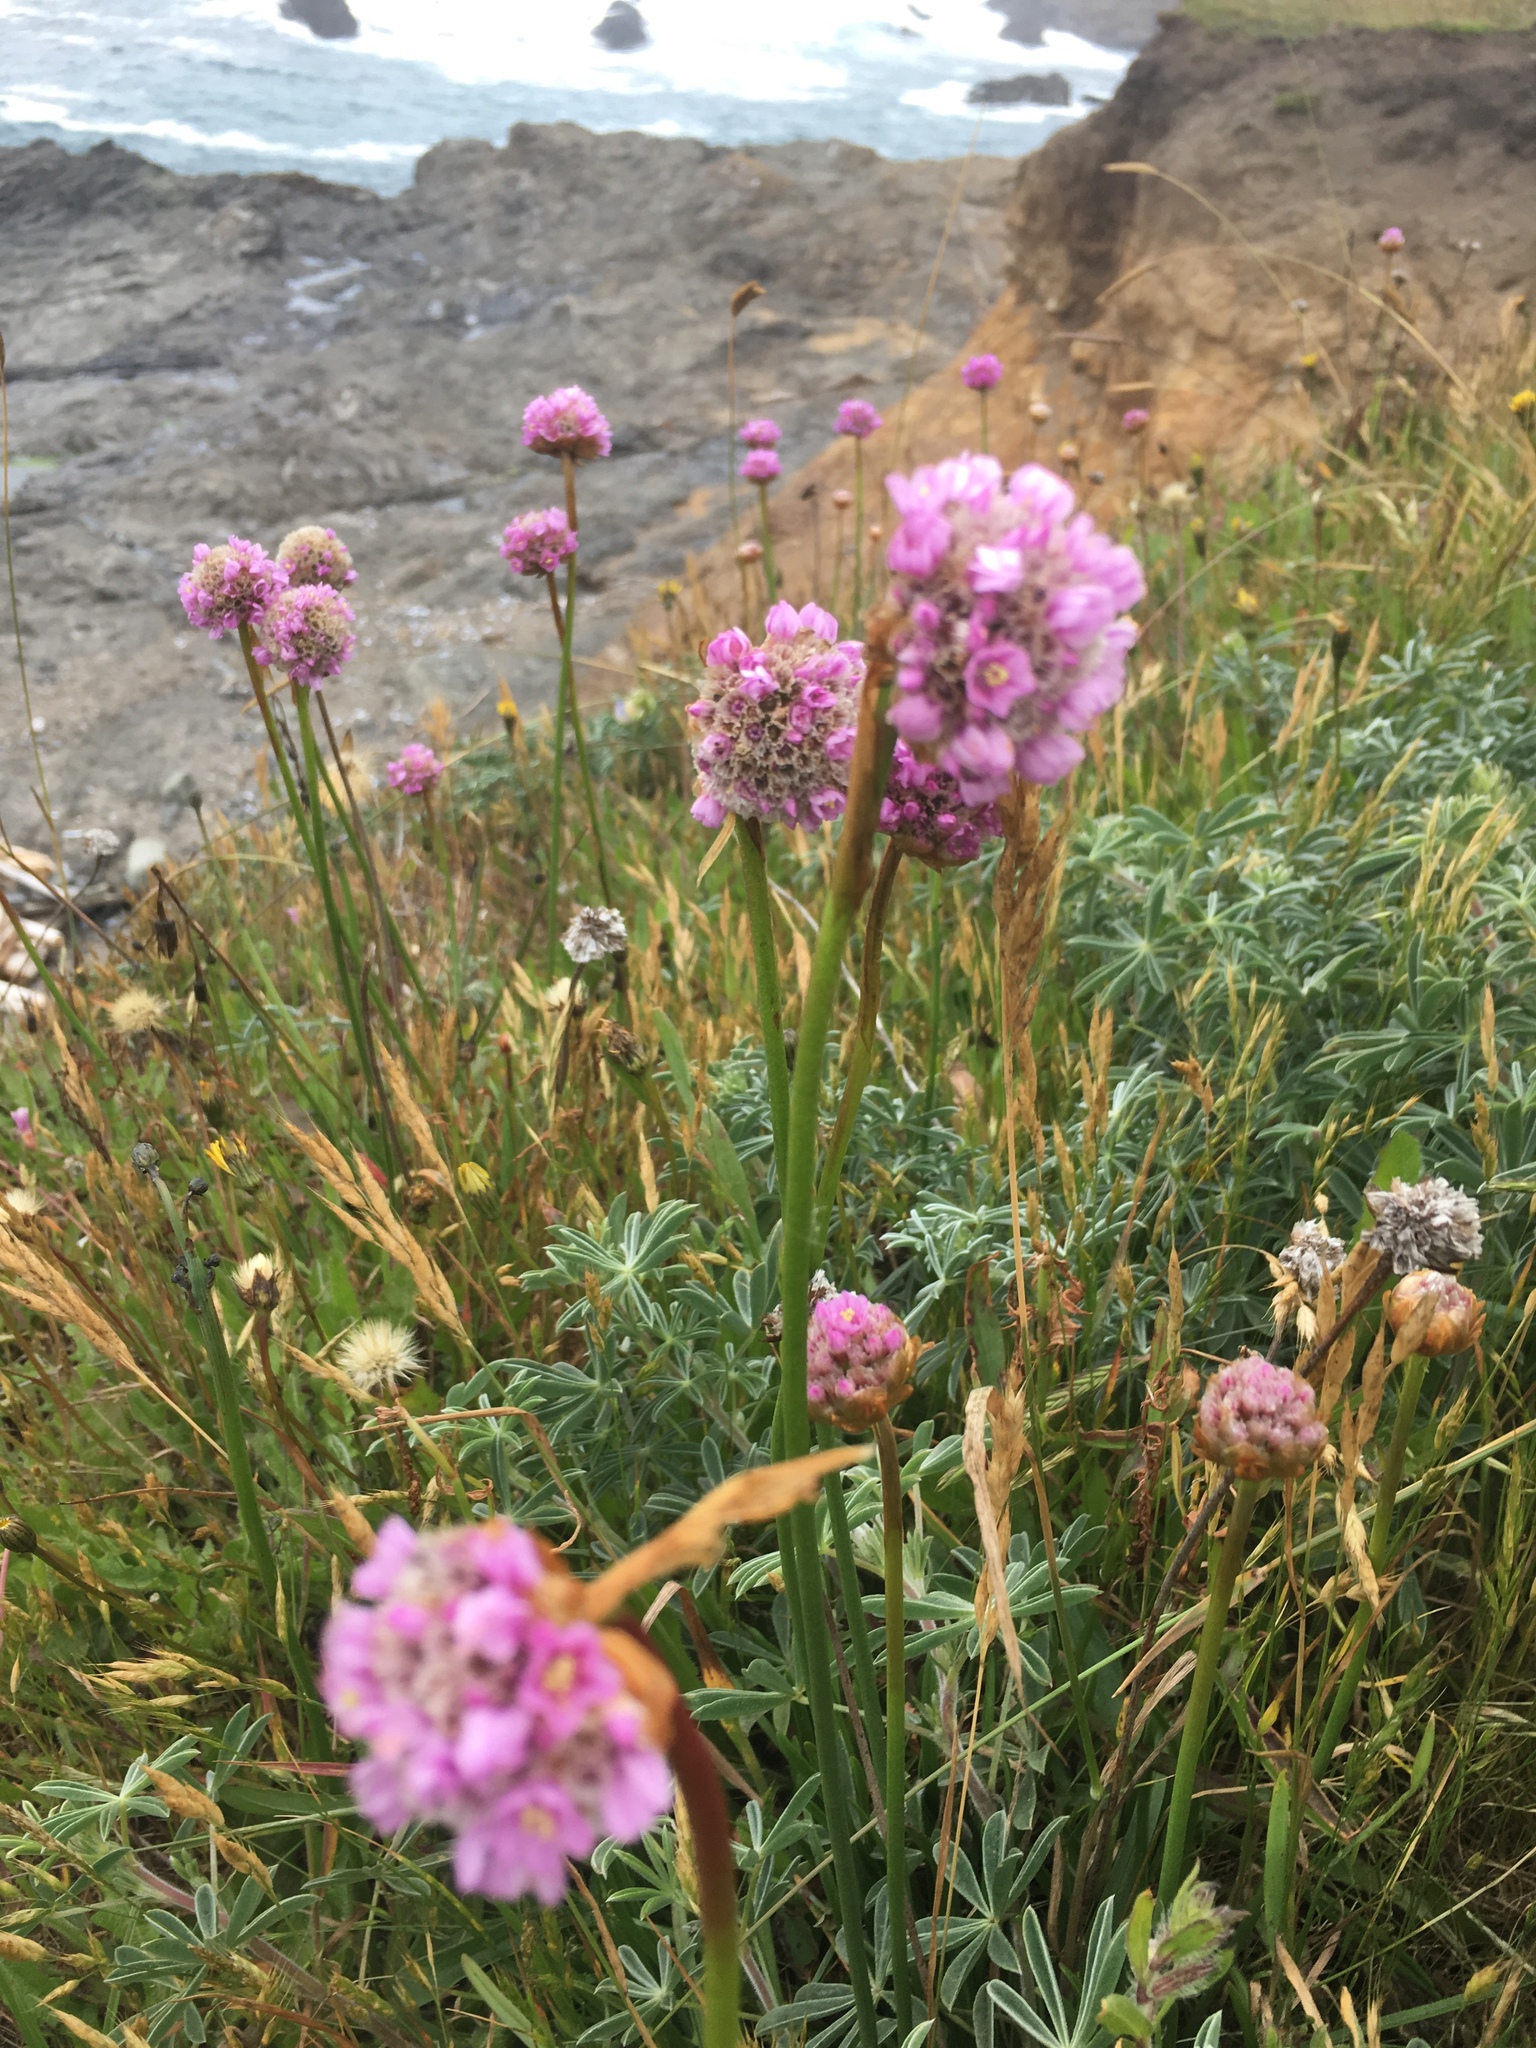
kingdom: Plantae
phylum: Tracheophyta
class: Magnoliopsida
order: Caryophyllales
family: Plumbaginaceae
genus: Armeria
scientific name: Armeria maritima
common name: Thrift
